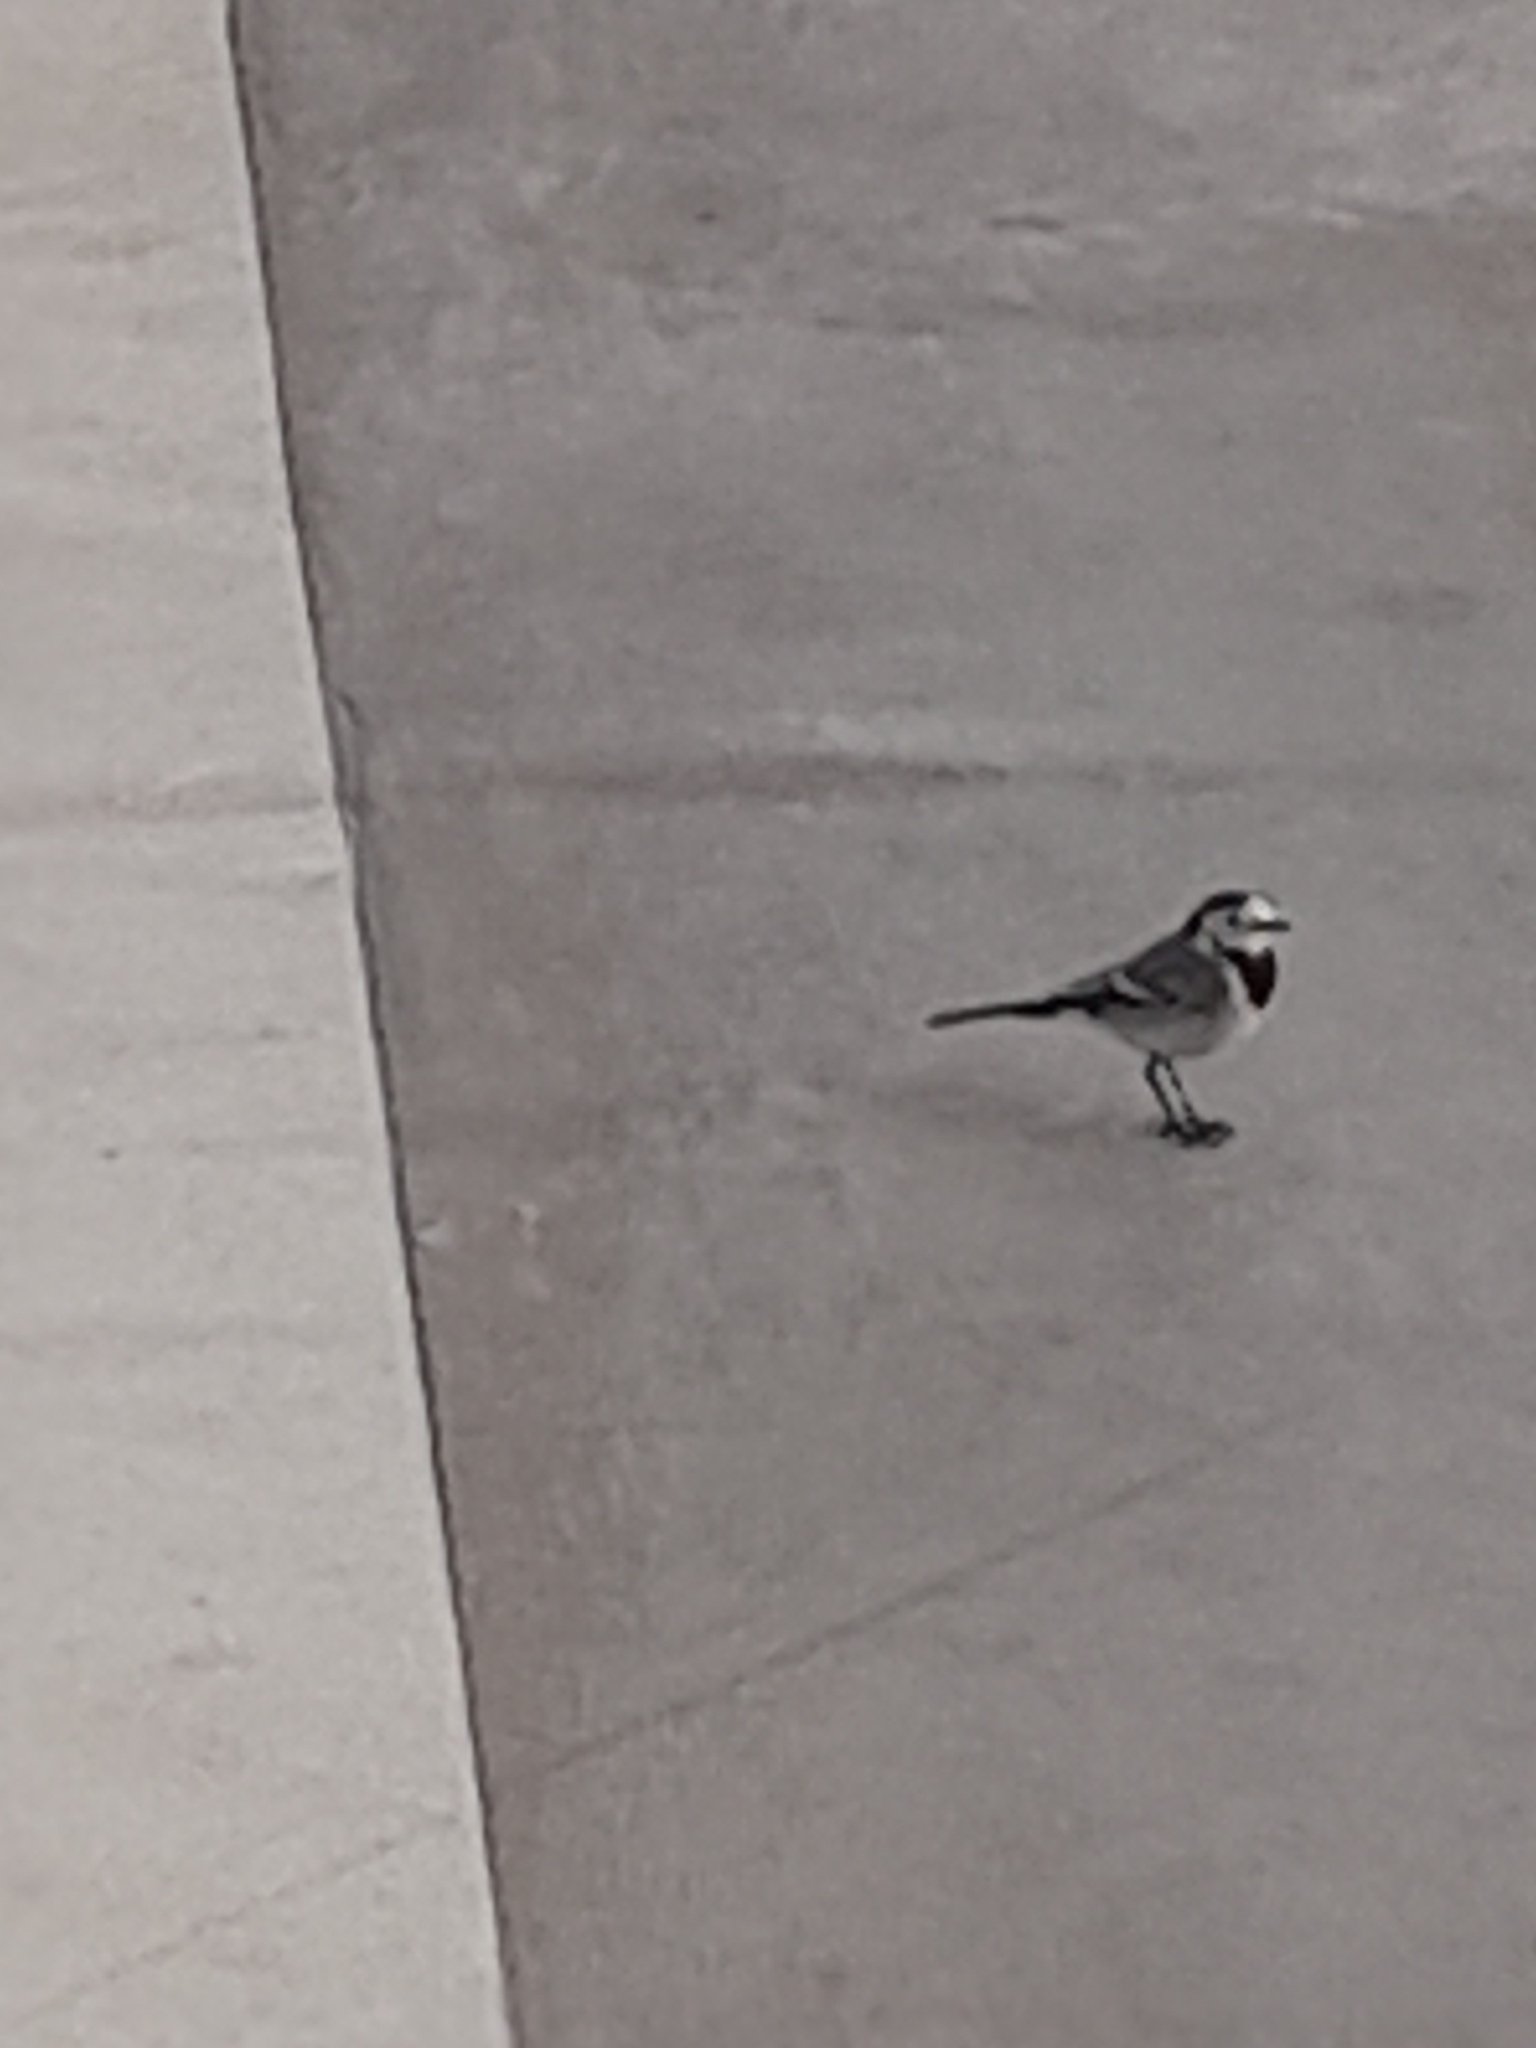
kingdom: Animalia
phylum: Chordata
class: Aves
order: Passeriformes
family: Motacillidae
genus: Motacilla
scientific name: Motacilla alba
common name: White wagtail
